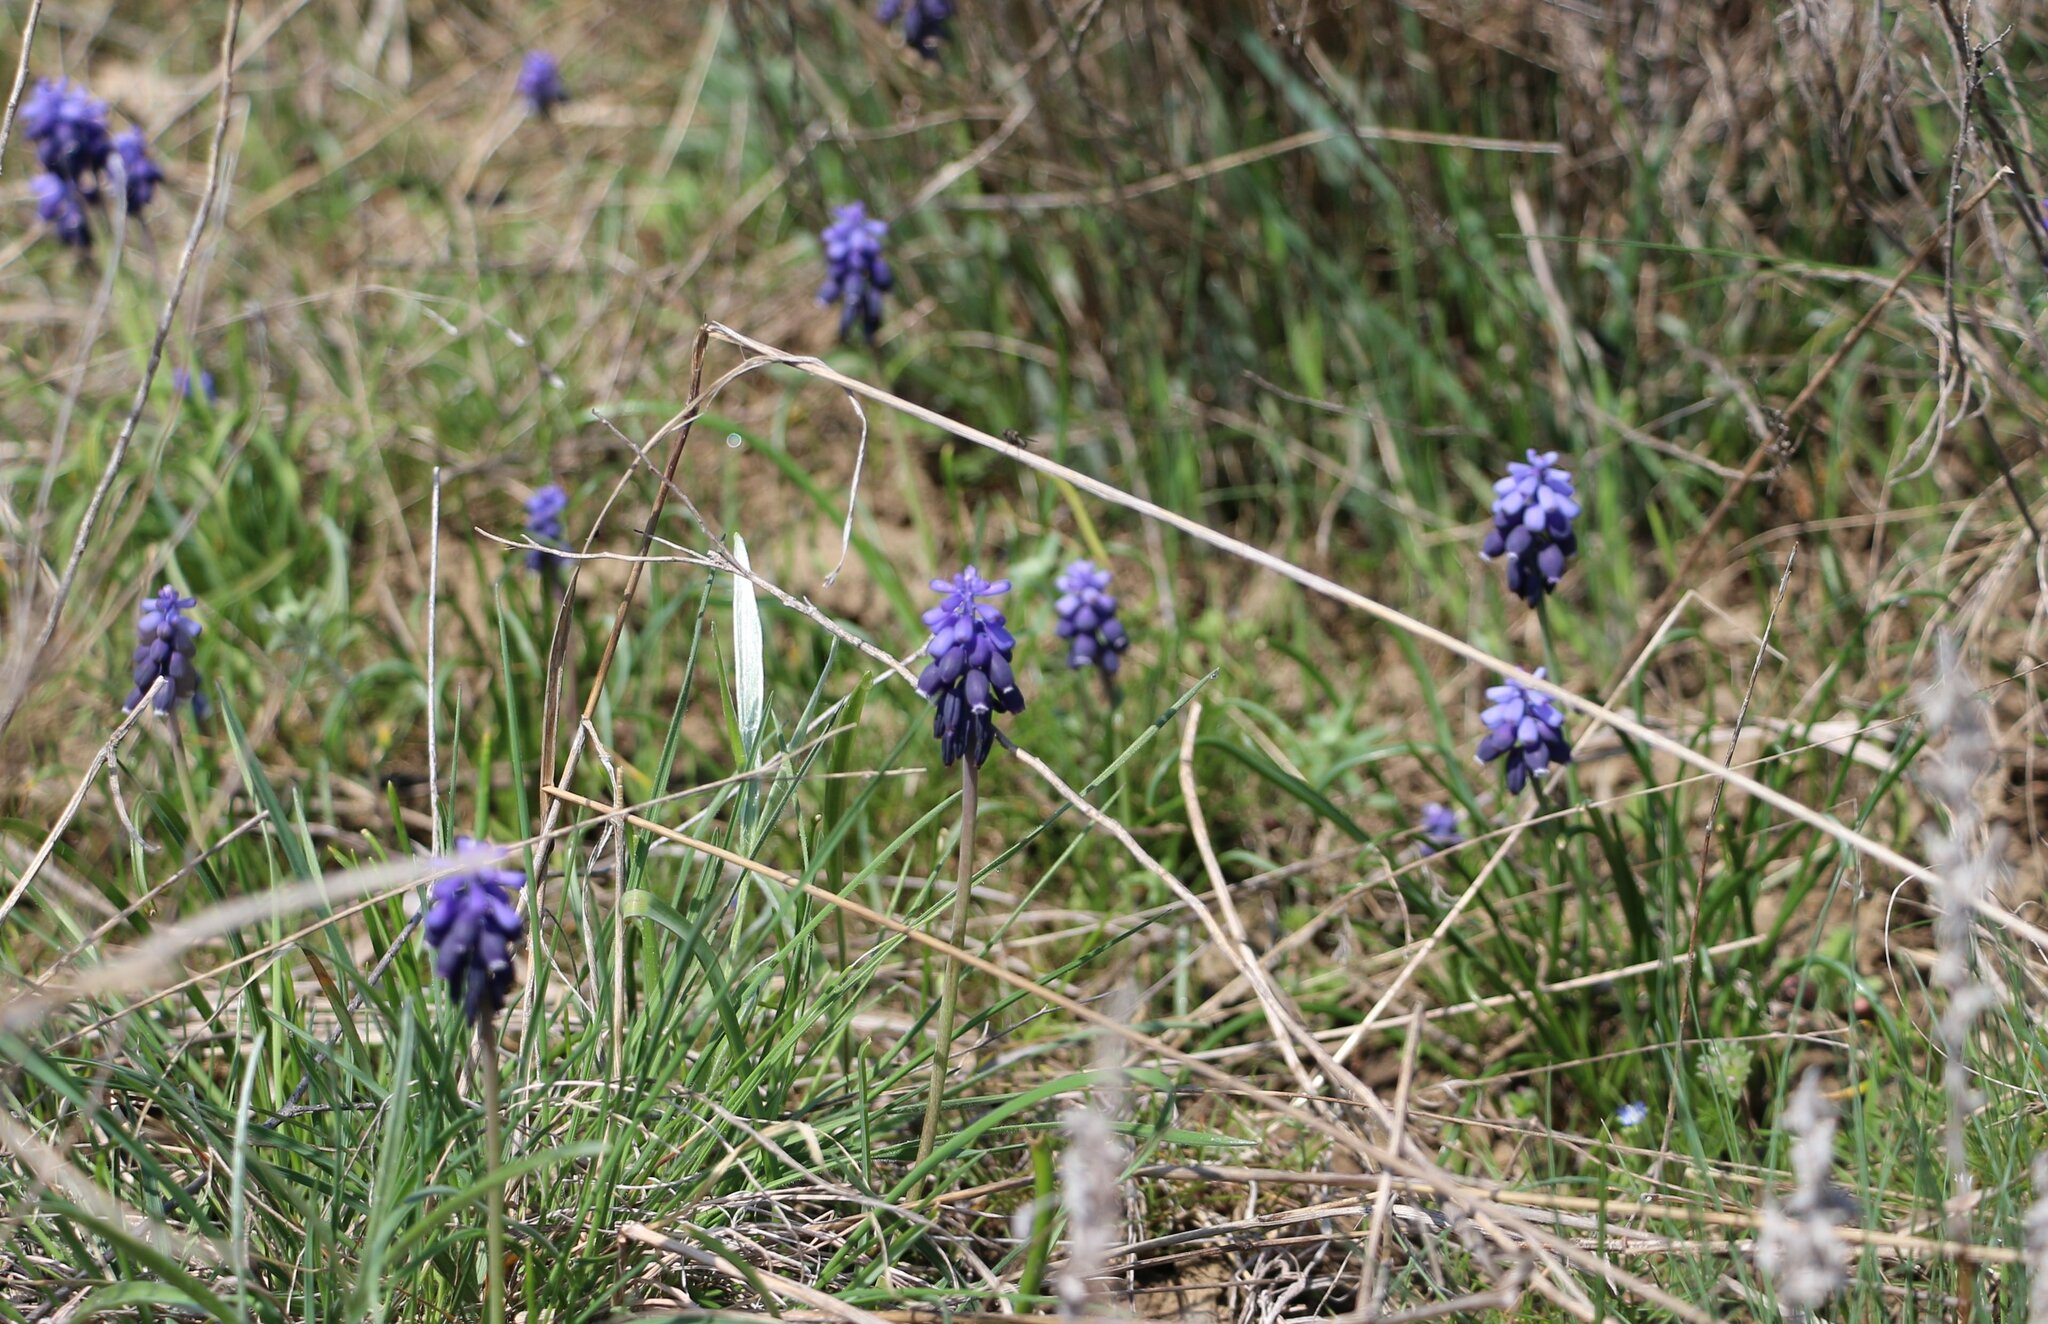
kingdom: Plantae
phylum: Tracheophyta
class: Liliopsida
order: Asparagales
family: Asparagaceae
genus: Muscari
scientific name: Muscari neglectum
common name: Grape-hyacinth
